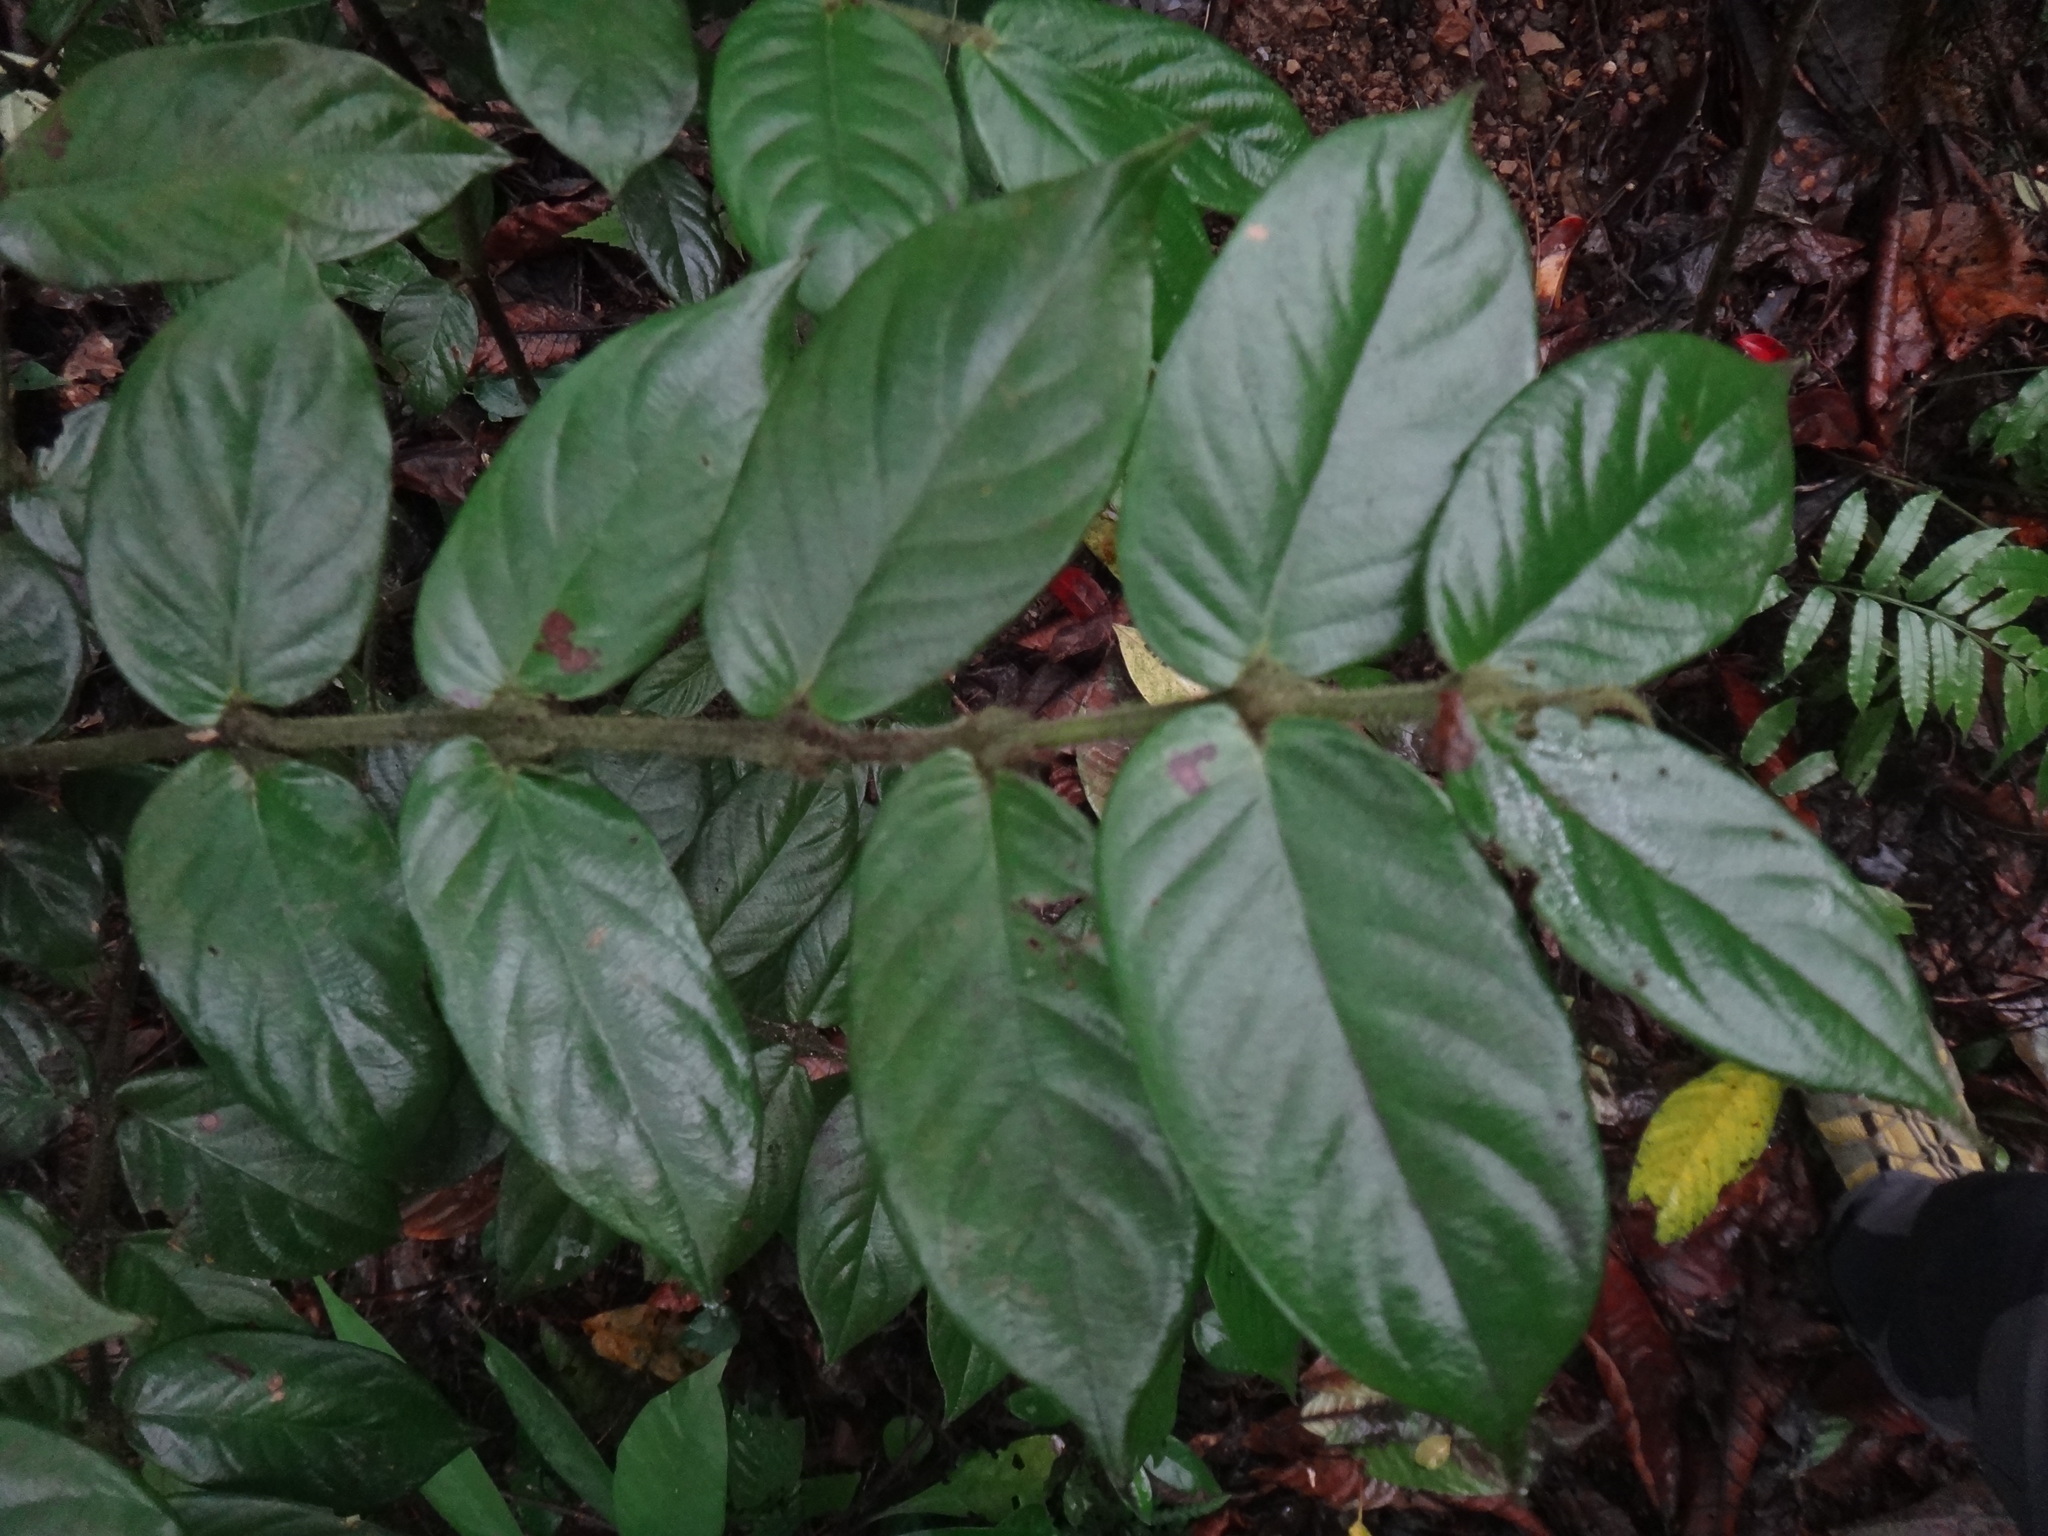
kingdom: Plantae
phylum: Tracheophyta
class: Magnoliopsida
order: Gentianales
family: Rubiaceae
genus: Lasianthus
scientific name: Lasianthus attenuatus
